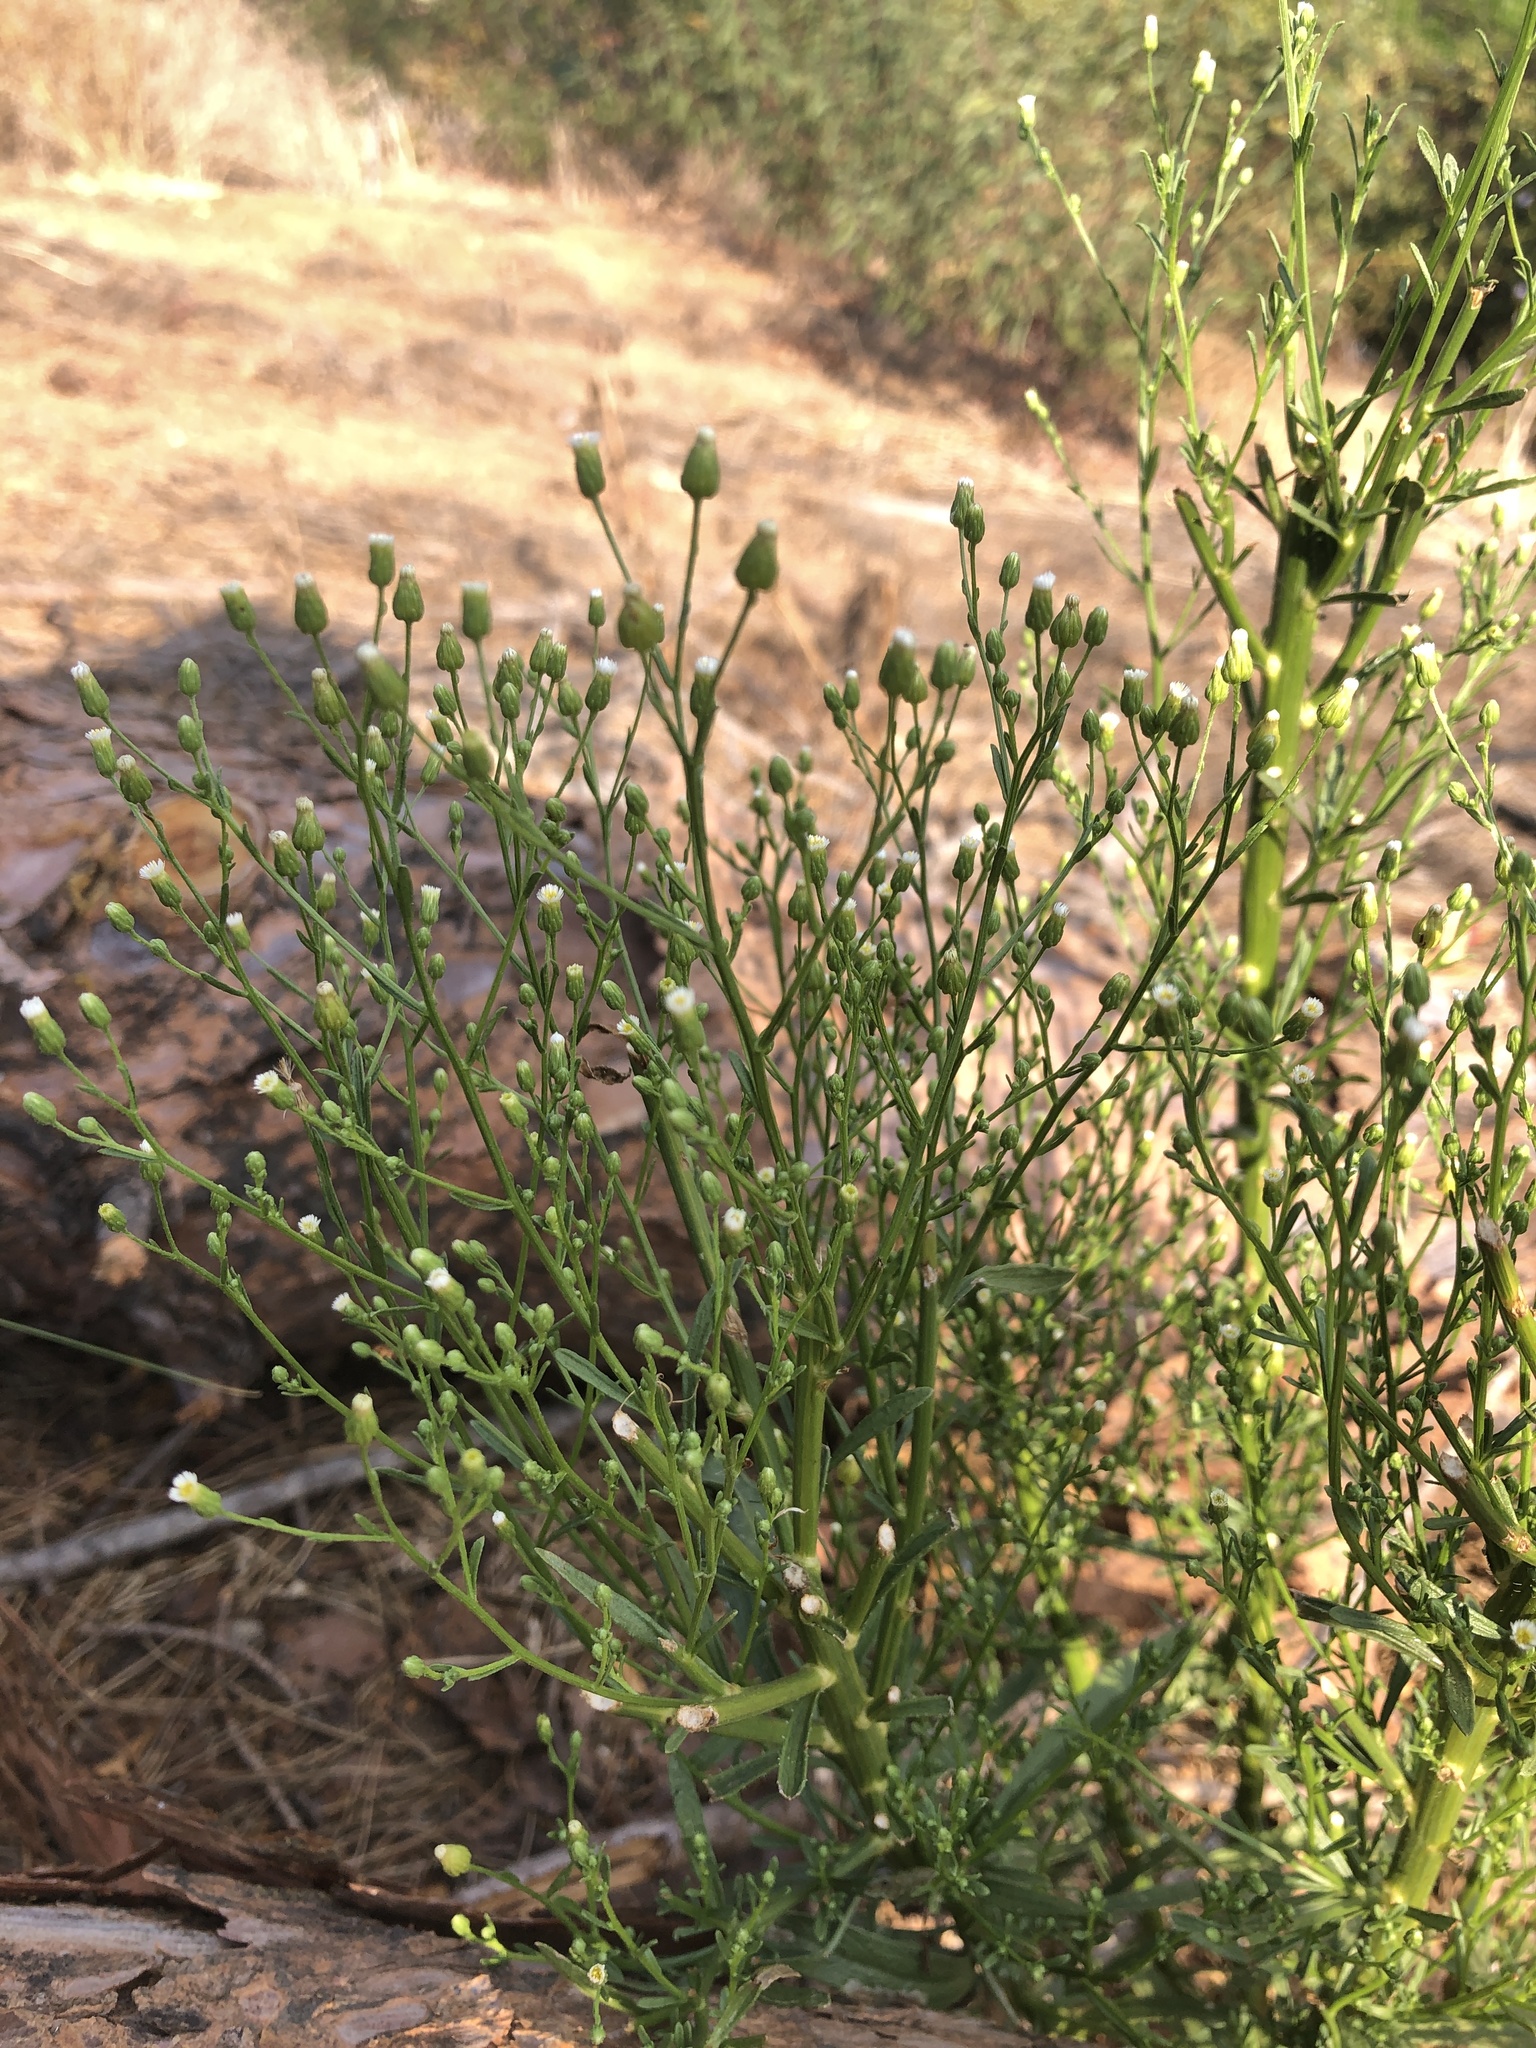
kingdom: Plantae
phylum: Tracheophyta
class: Magnoliopsida
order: Asterales
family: Asteraceae
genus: Erigeron
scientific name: Erigeron canadensis
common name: Canadian fleabane
